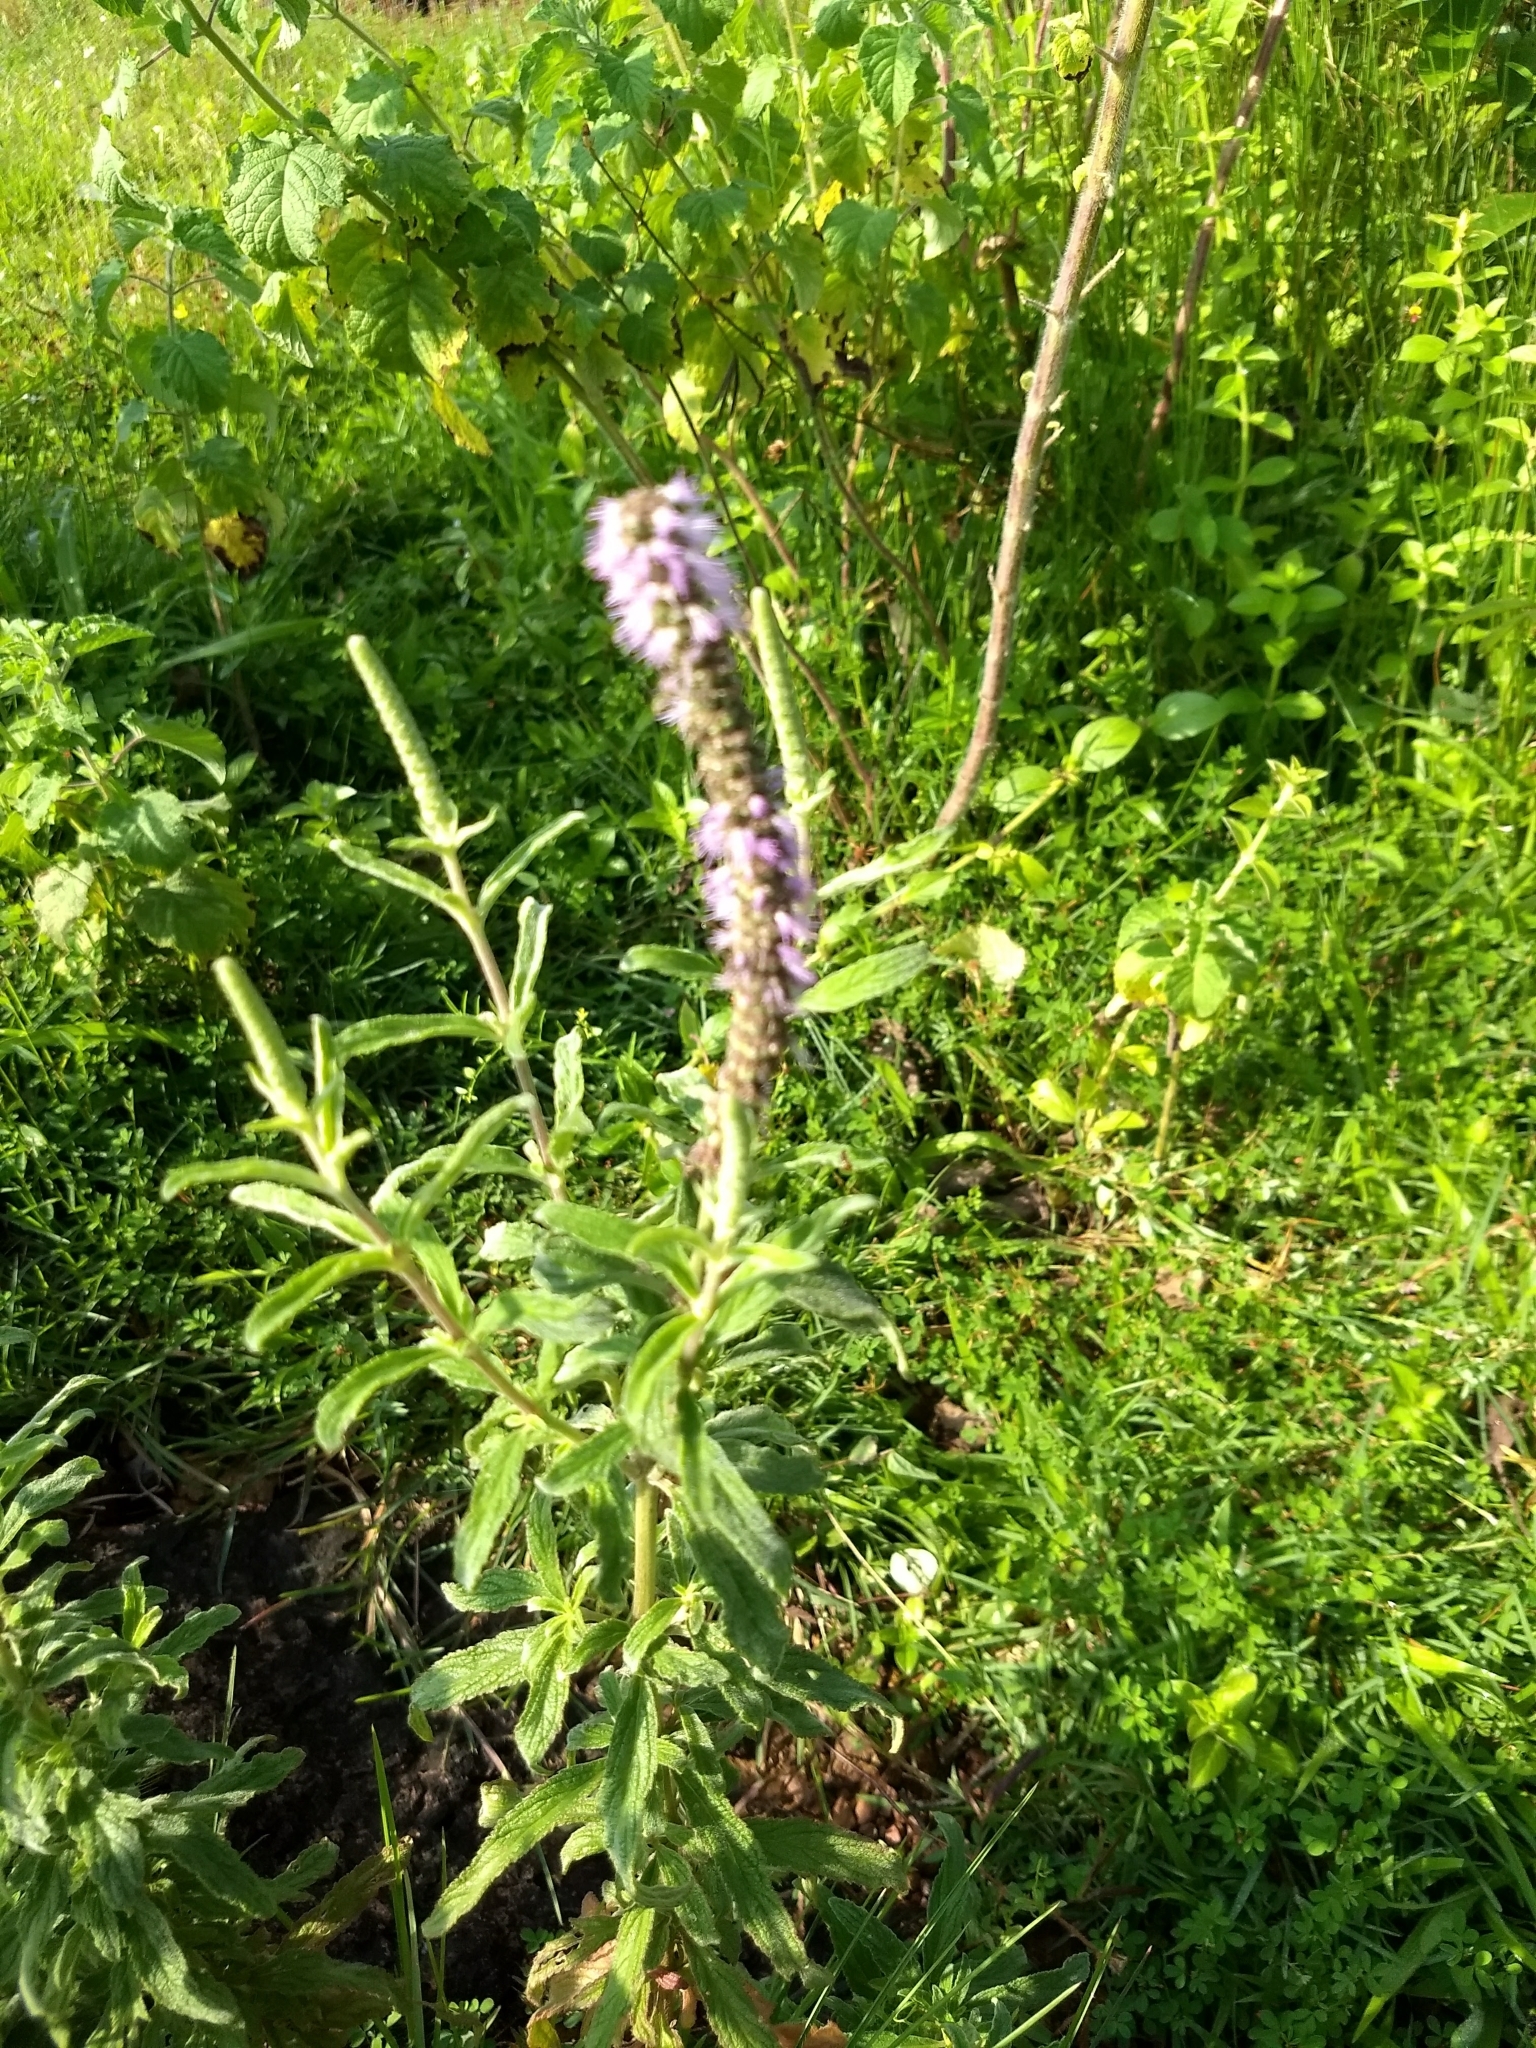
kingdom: Plantae
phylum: Tracheophyta
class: Magnoliopsida
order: Lamiales
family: Lamiaceae
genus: Pogostemon
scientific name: Pogostemon quadrifolius
